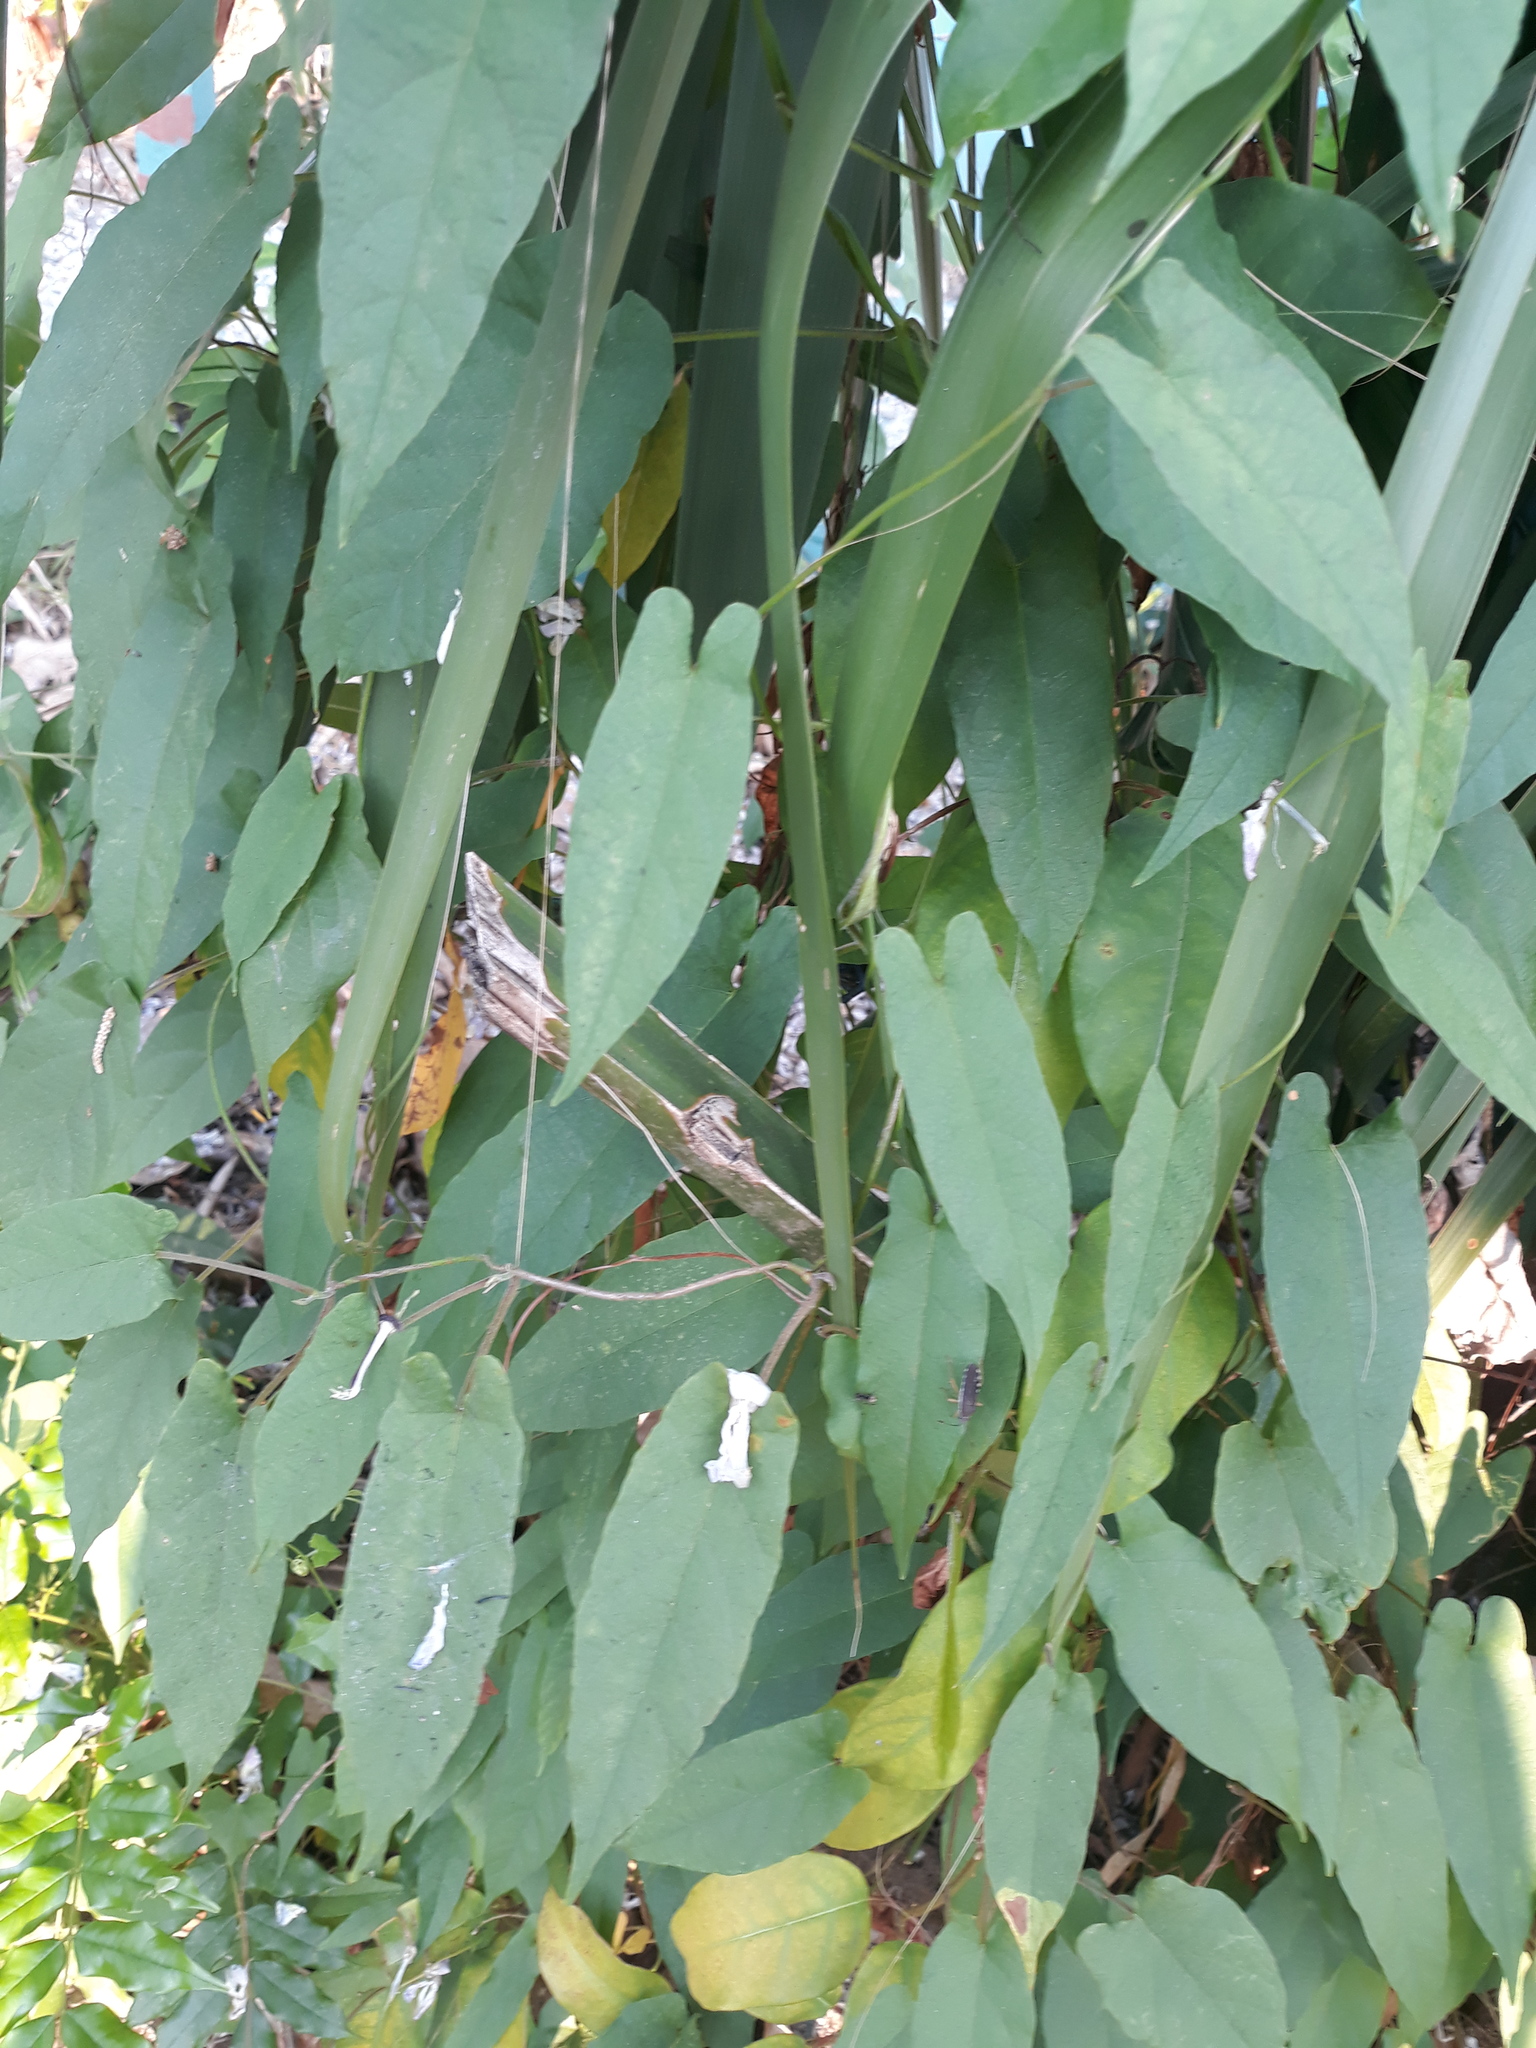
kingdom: Plantae
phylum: Tracheophyta
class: Magnoliopsida
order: Solanales
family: Convolvulaceae
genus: Camonea
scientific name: Camonea umbellata
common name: Hogvine
